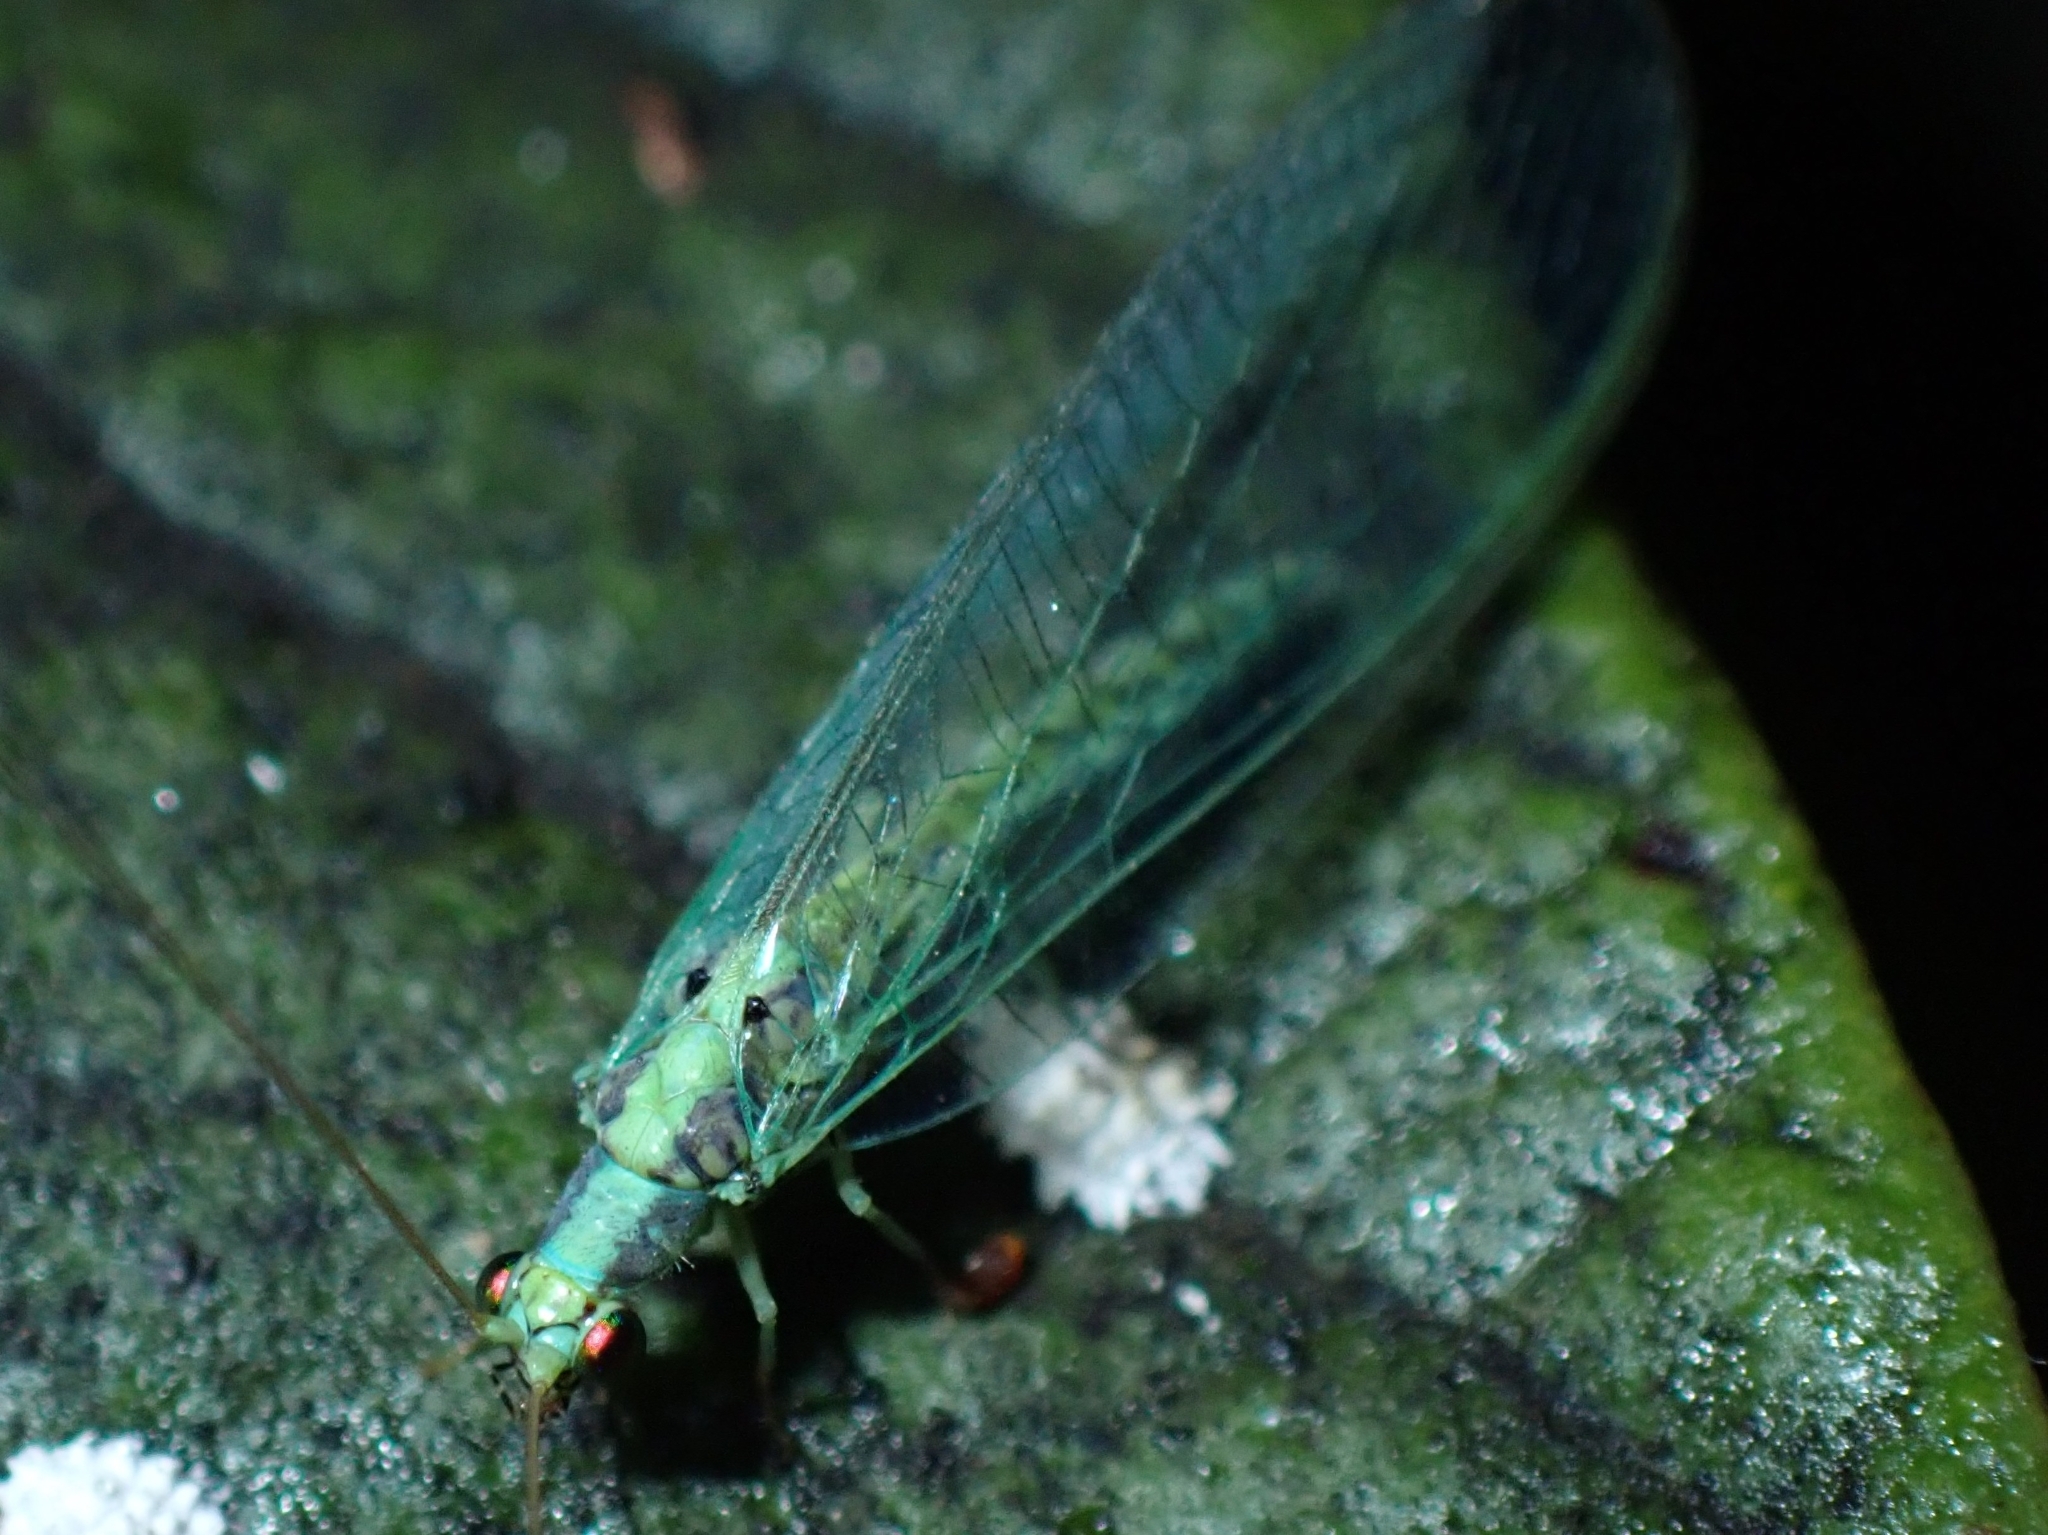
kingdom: Animalia
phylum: Arthropoda
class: Insecta
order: Neuroptera
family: Chrysopidae
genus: Pseudomallada
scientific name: Pseudomallada subcostalis
